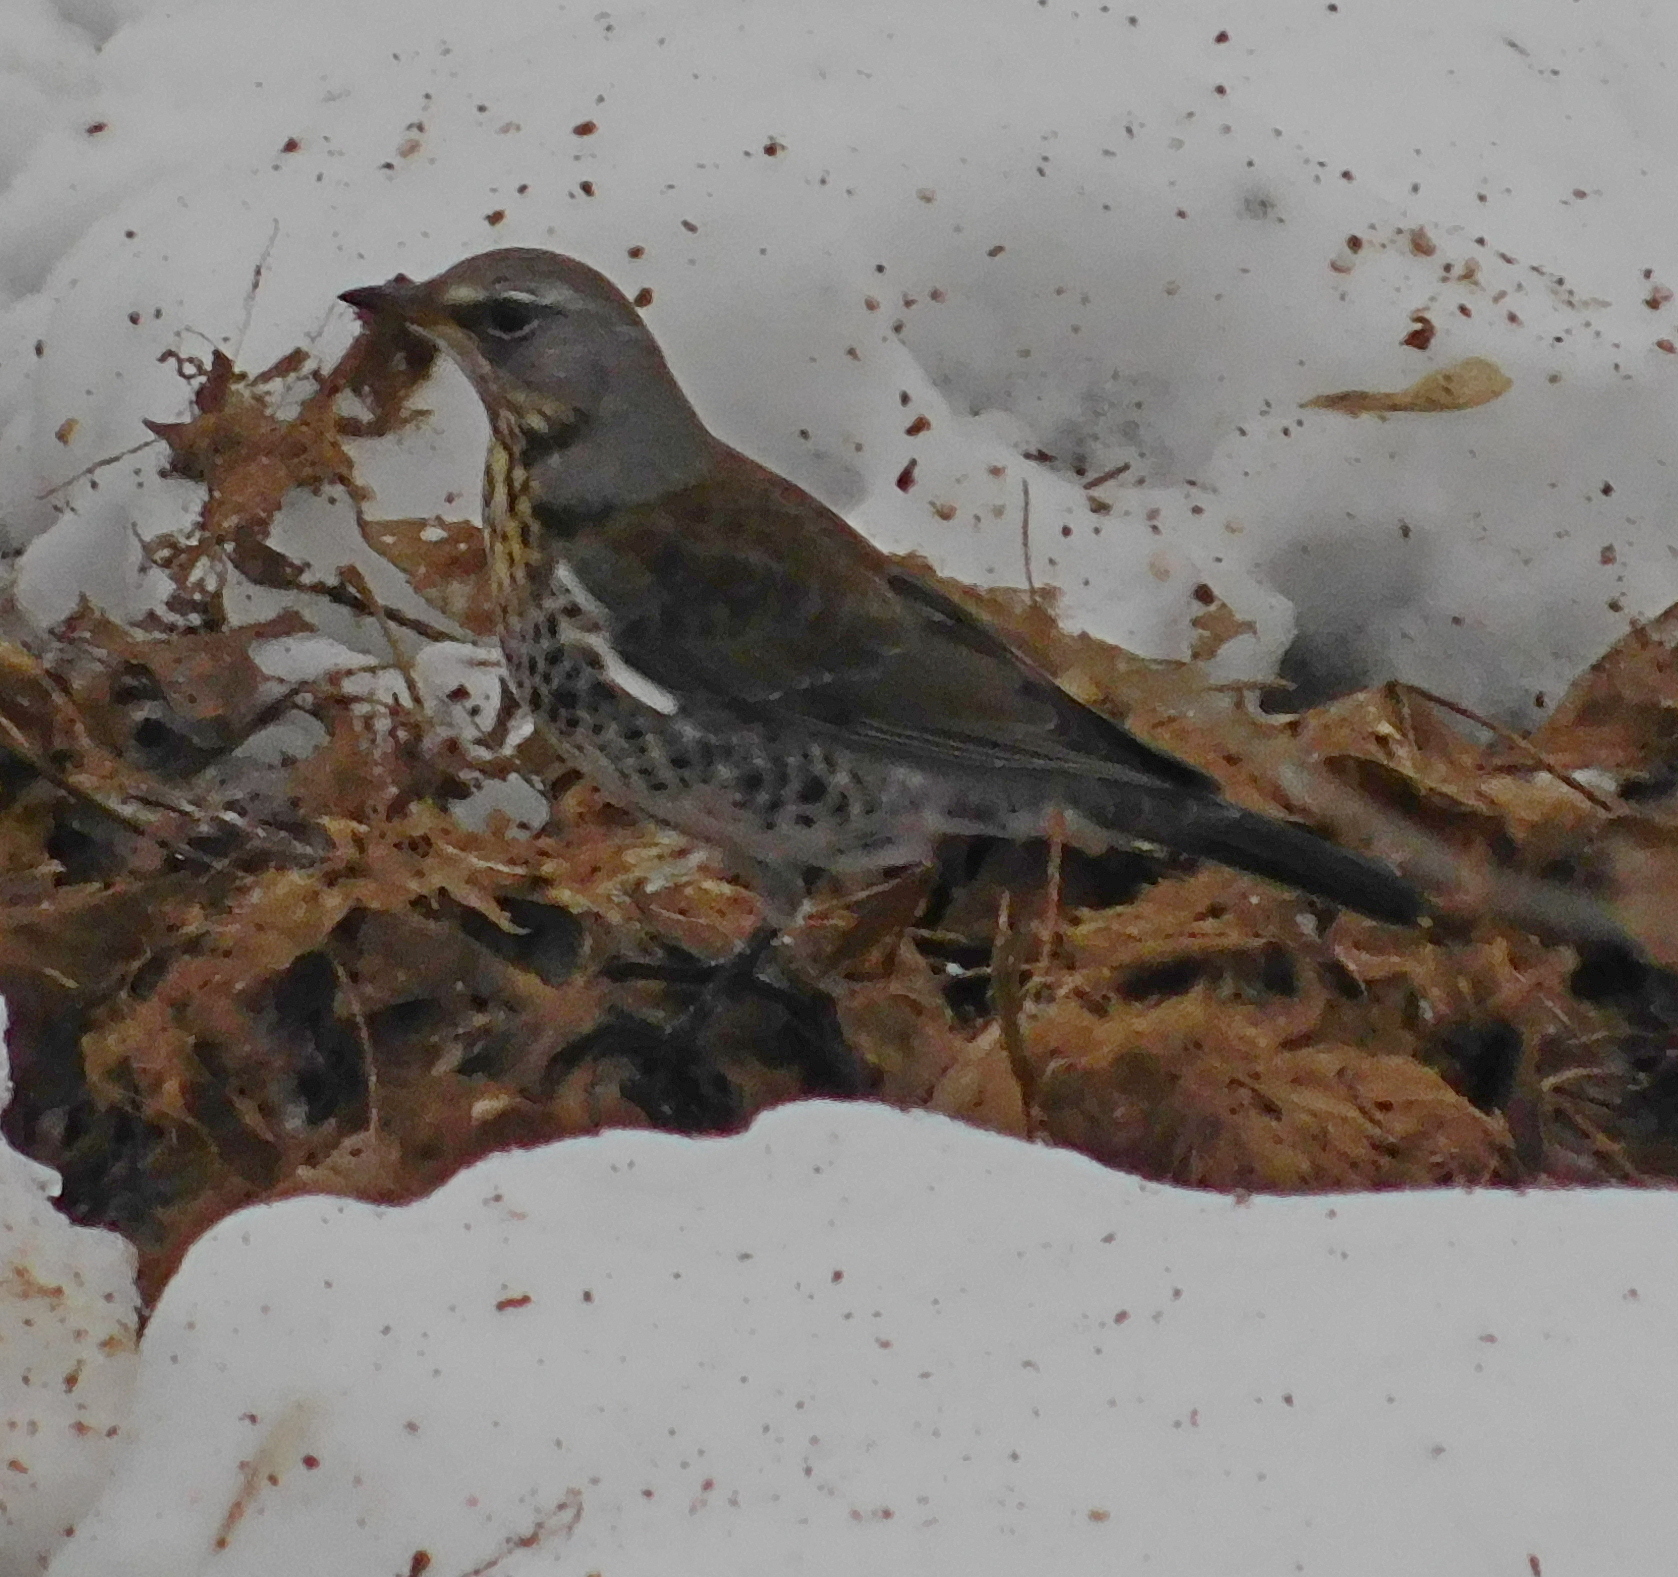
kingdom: Animalia
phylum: Chordata
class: Aves
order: Passeriformes
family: Turdidae
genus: Turdus
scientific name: Turdus pilaris
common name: Fieldfare
